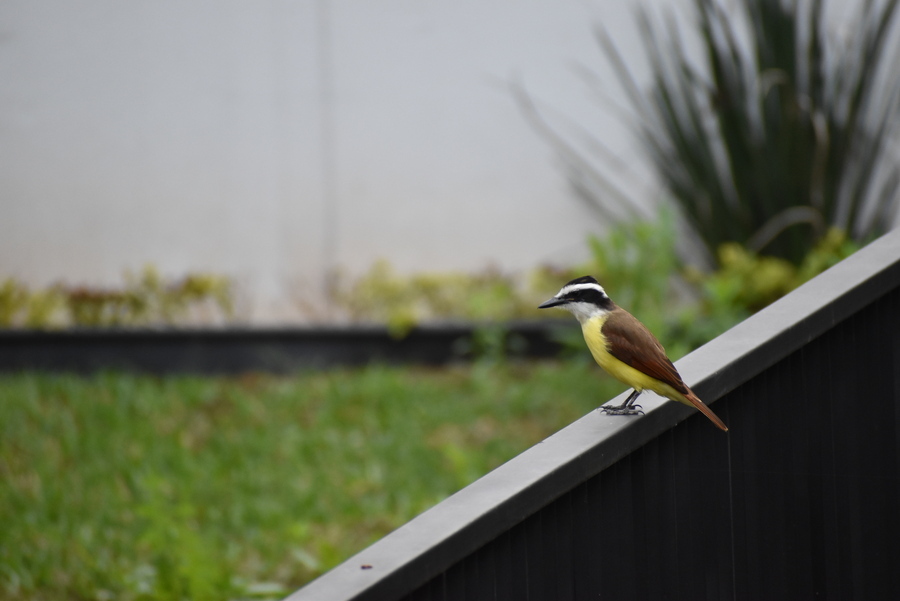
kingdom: Animalia
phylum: Chordata
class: Aves
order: Passeriformes
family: Tyrannidae
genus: Pitangus
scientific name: Pitangus sulphuratus
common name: Great kiskadee
